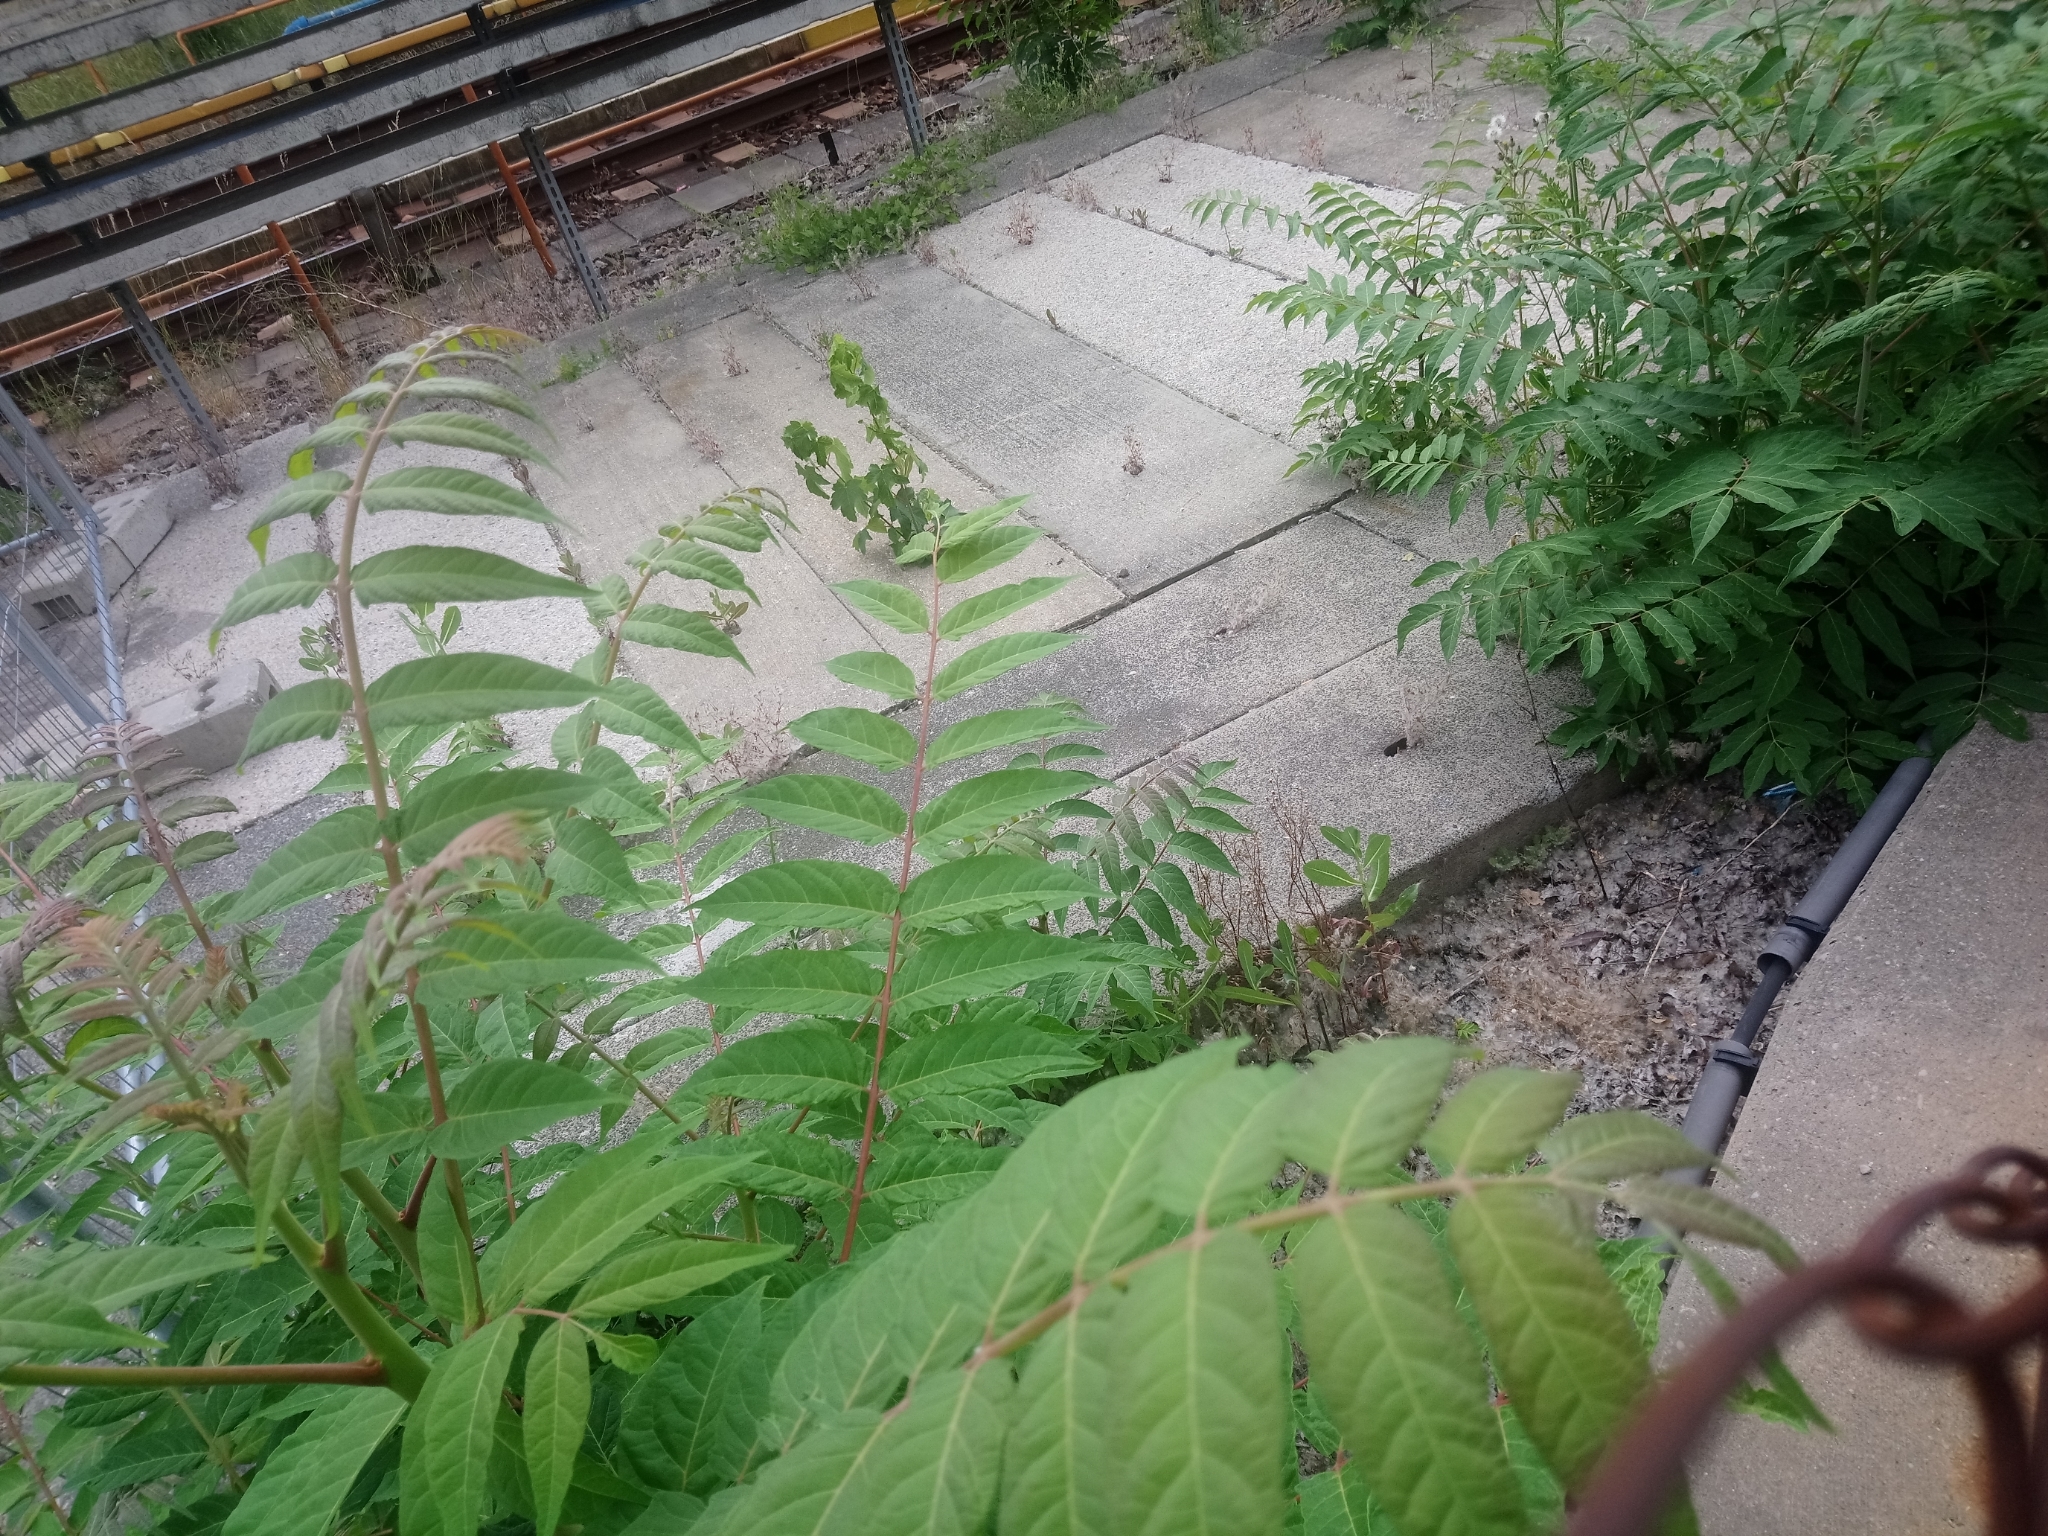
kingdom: Plantae
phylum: Tracheophyta
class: Magnoliopsida
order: Sapindales
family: Simaroubaceae
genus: Ailanthus
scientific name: Ailanthus altissima
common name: Tree-of-heaven
